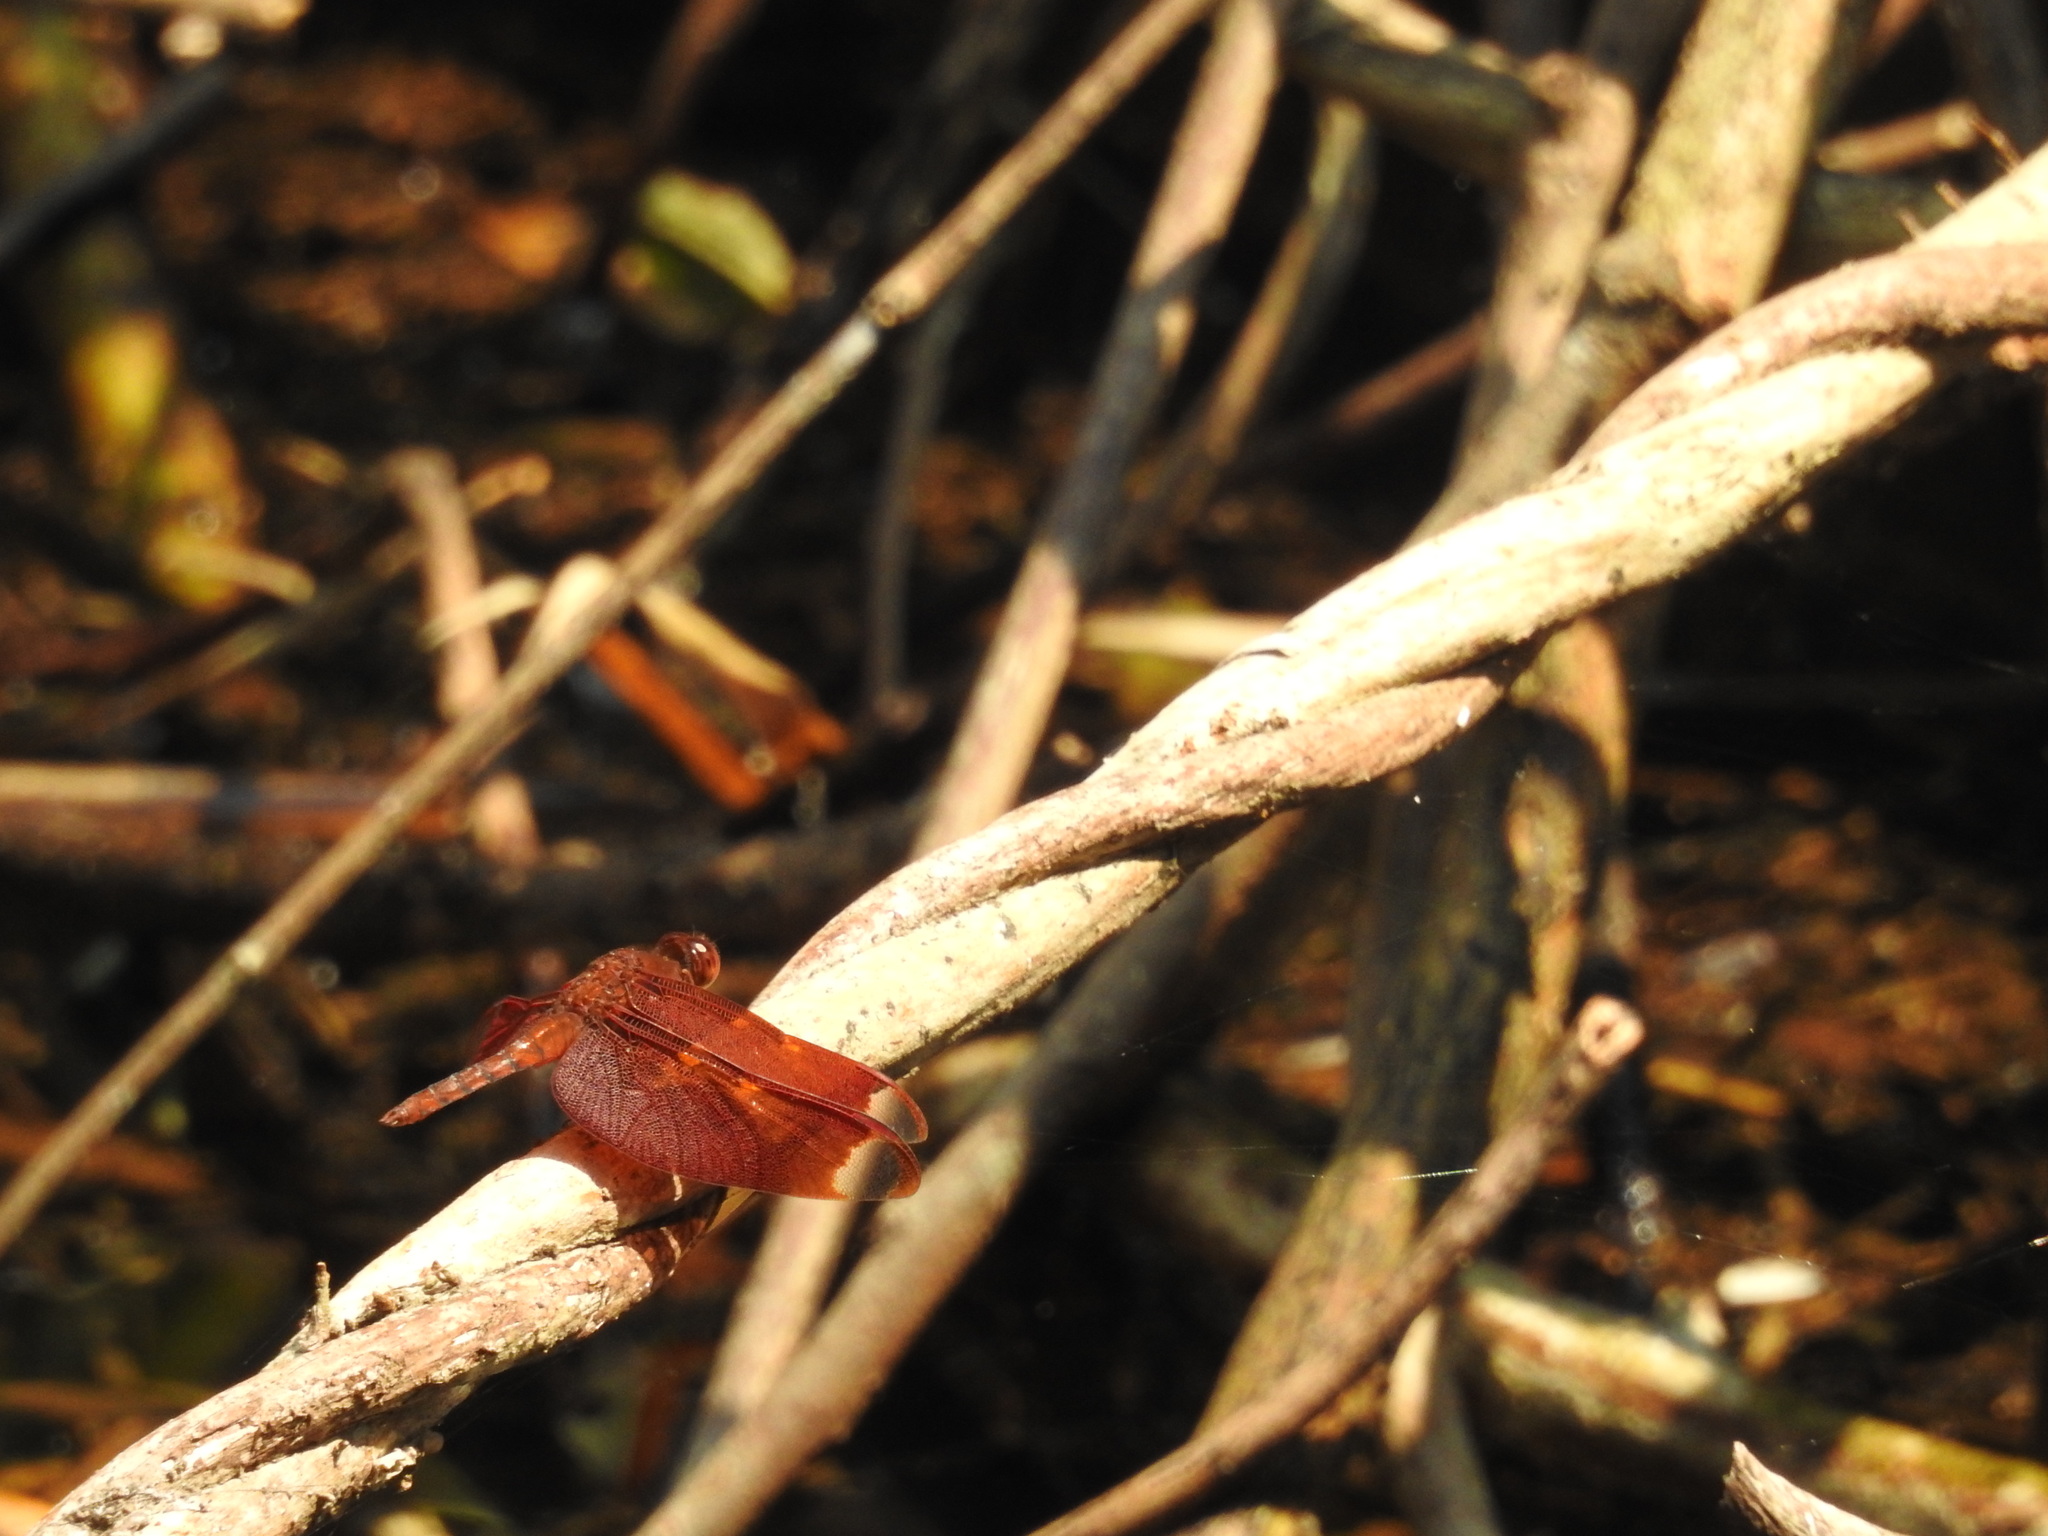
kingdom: Animalia
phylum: Arthropoda
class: Insecta
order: Odonata
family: Libellulidae
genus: Neurothemis
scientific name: Neurothemis fulvia
